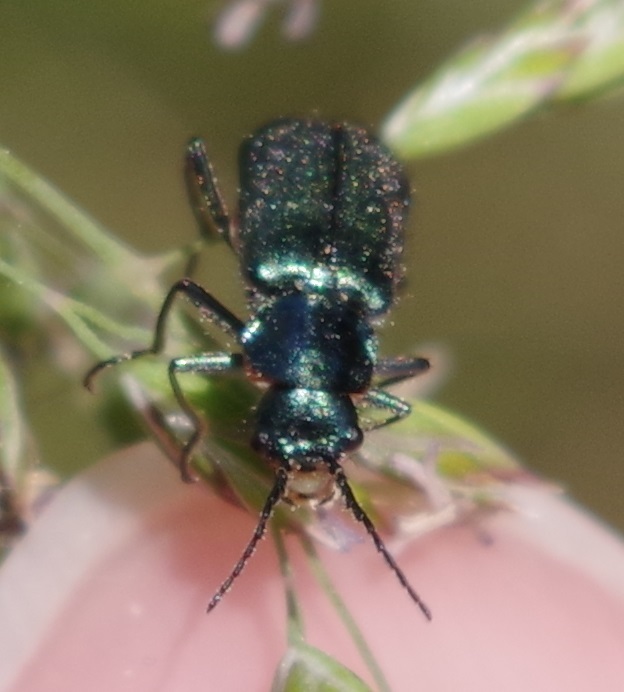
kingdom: Animalia
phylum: Arthropoda
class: Insecta
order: Coleoptera
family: Melyridae
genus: Malachius
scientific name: Malachius bipustulatus
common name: Malachite beetle
